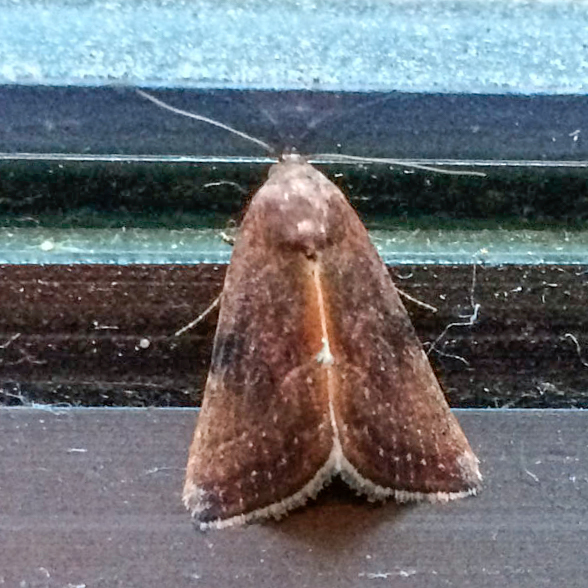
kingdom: Animalia
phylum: Arthropoda
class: Insecta
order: Lepidoptera
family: Noctuidae
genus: Galgula
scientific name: Galgula partita
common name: Wedgeling
